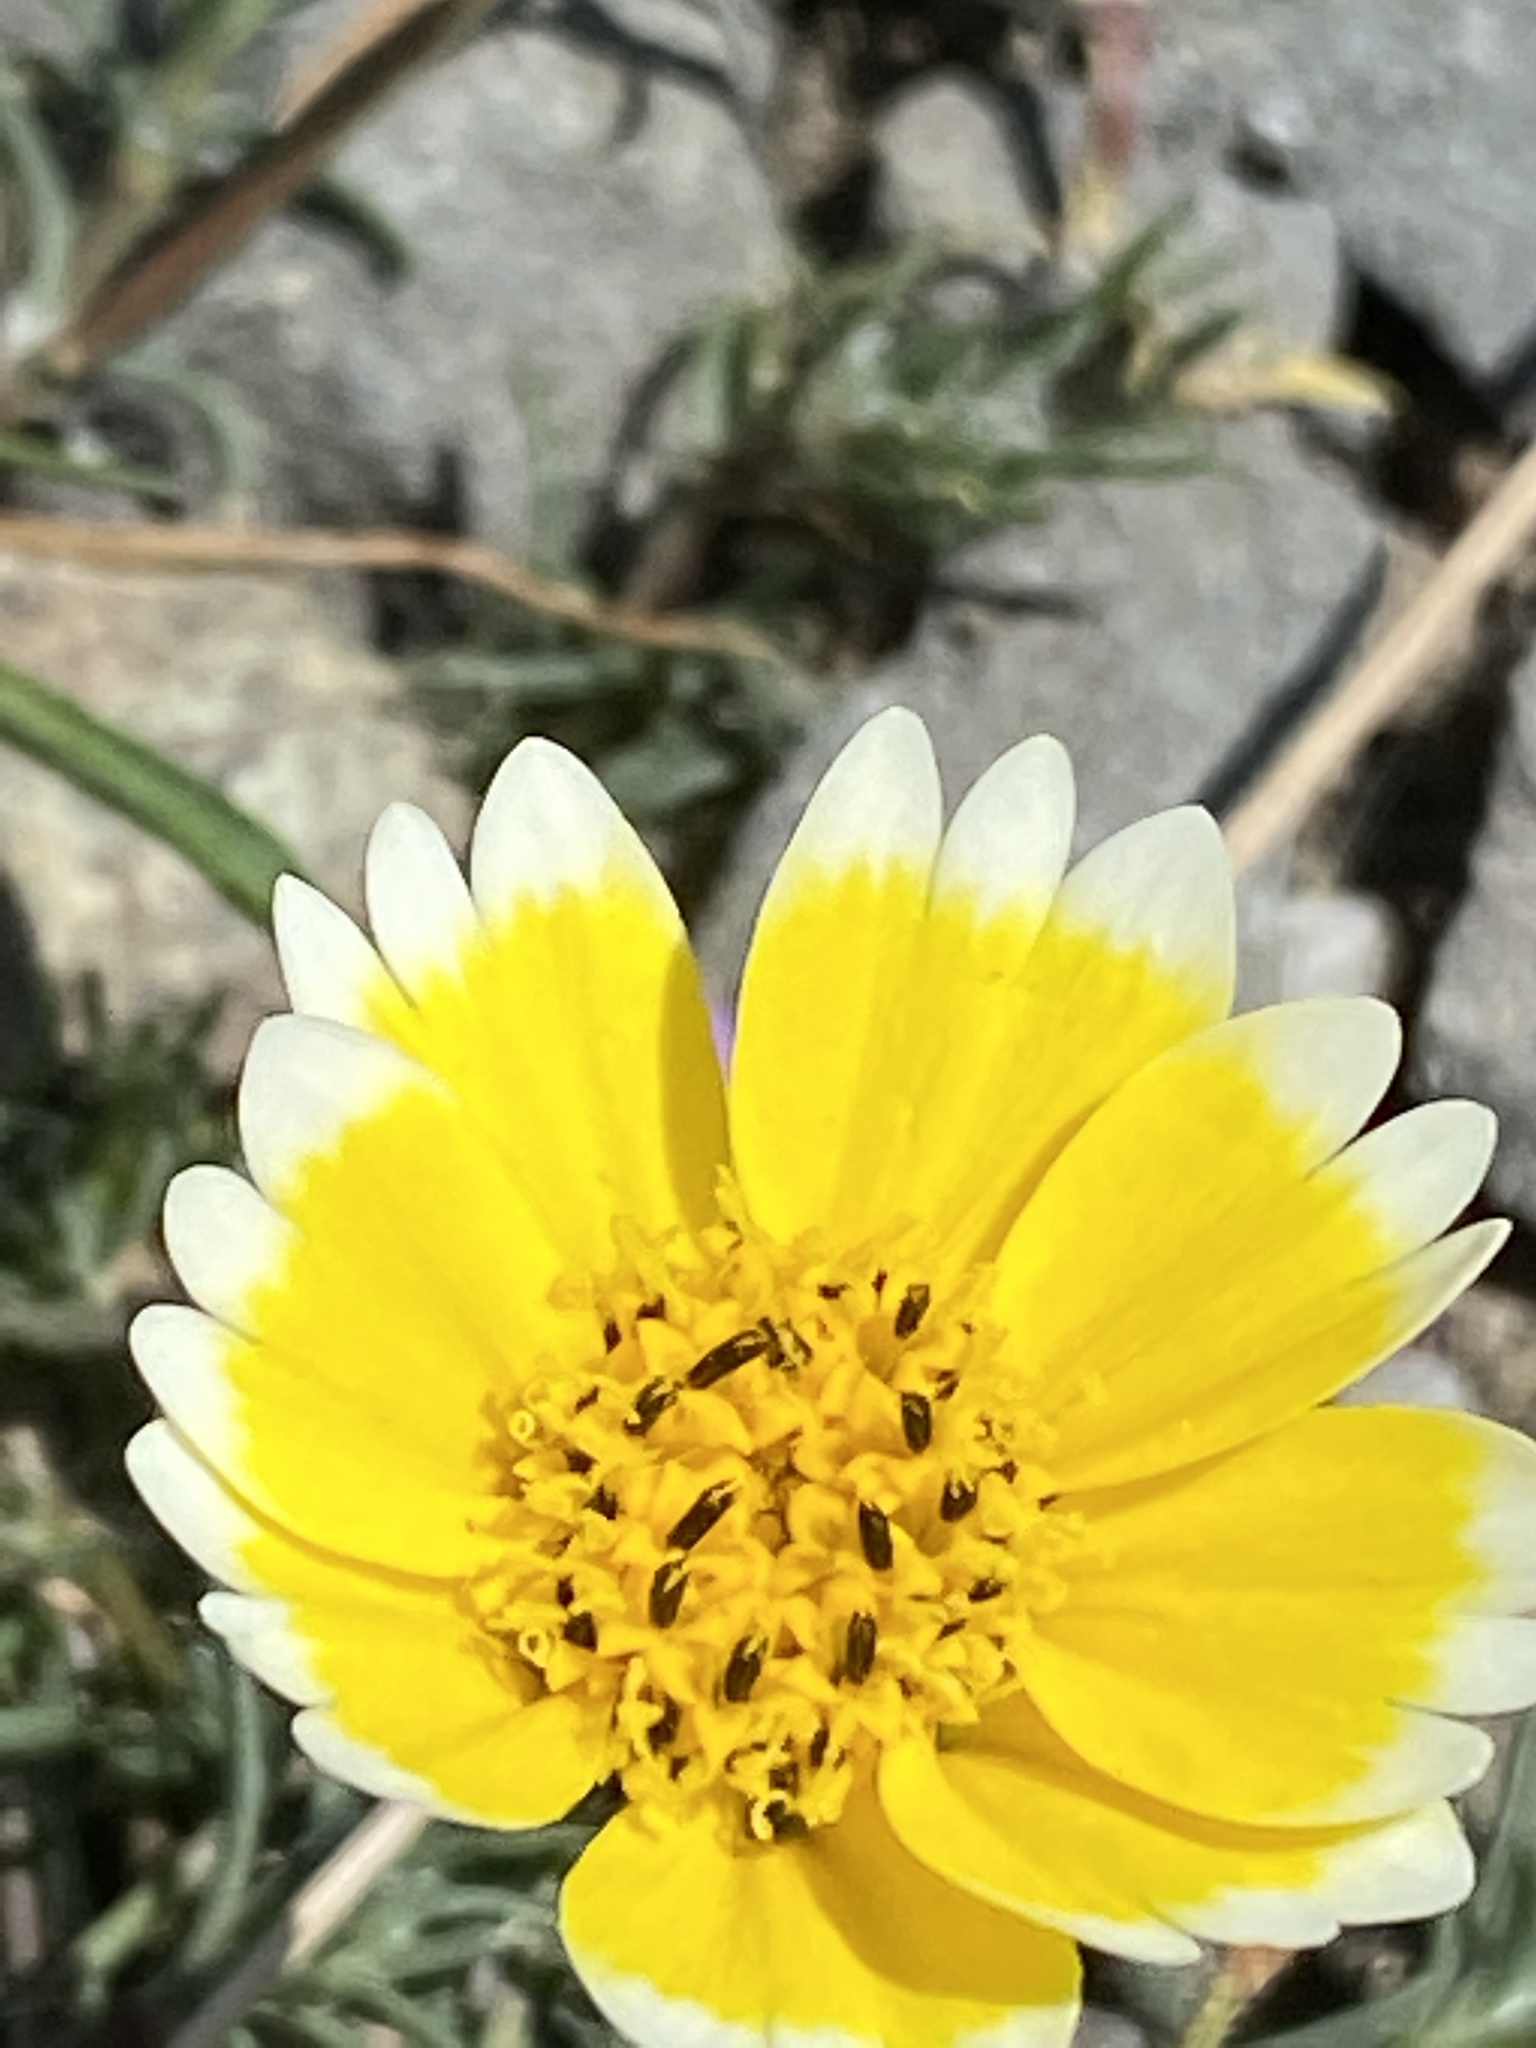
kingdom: Plantae
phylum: Tracheophyta
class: Magnoliopsida
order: Asterales
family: Asteraceae
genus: Layia
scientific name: Layia platyglossa
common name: Tidy-tips
